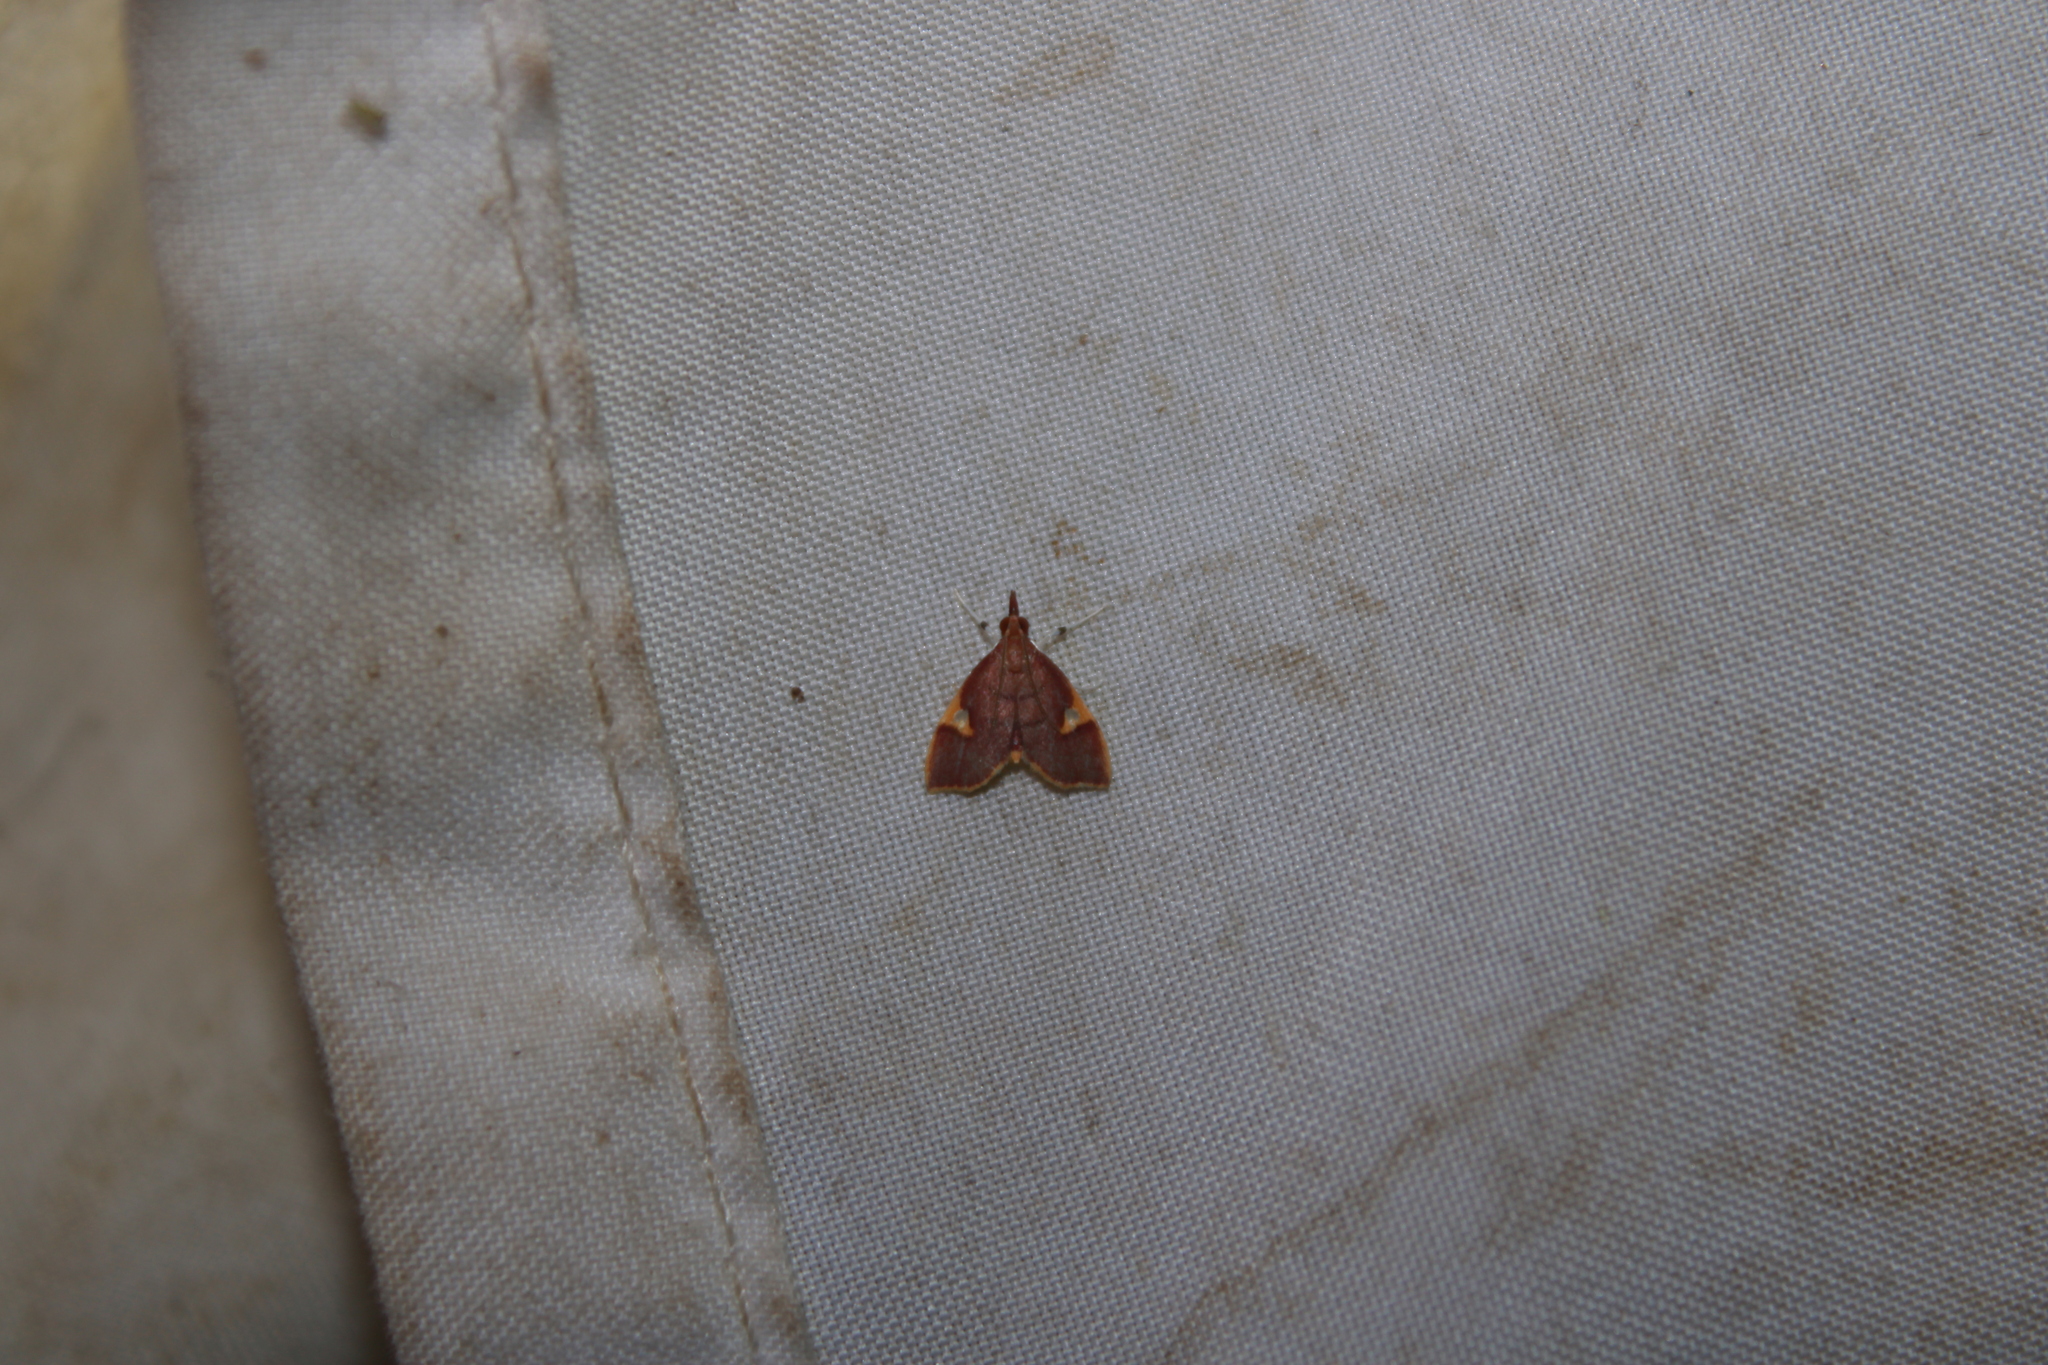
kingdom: Animalia
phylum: Arthropoda
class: Insecta
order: Lepidoptera
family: Crambidae
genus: Deuterophysa
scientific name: Deuterophysa fernaldi
